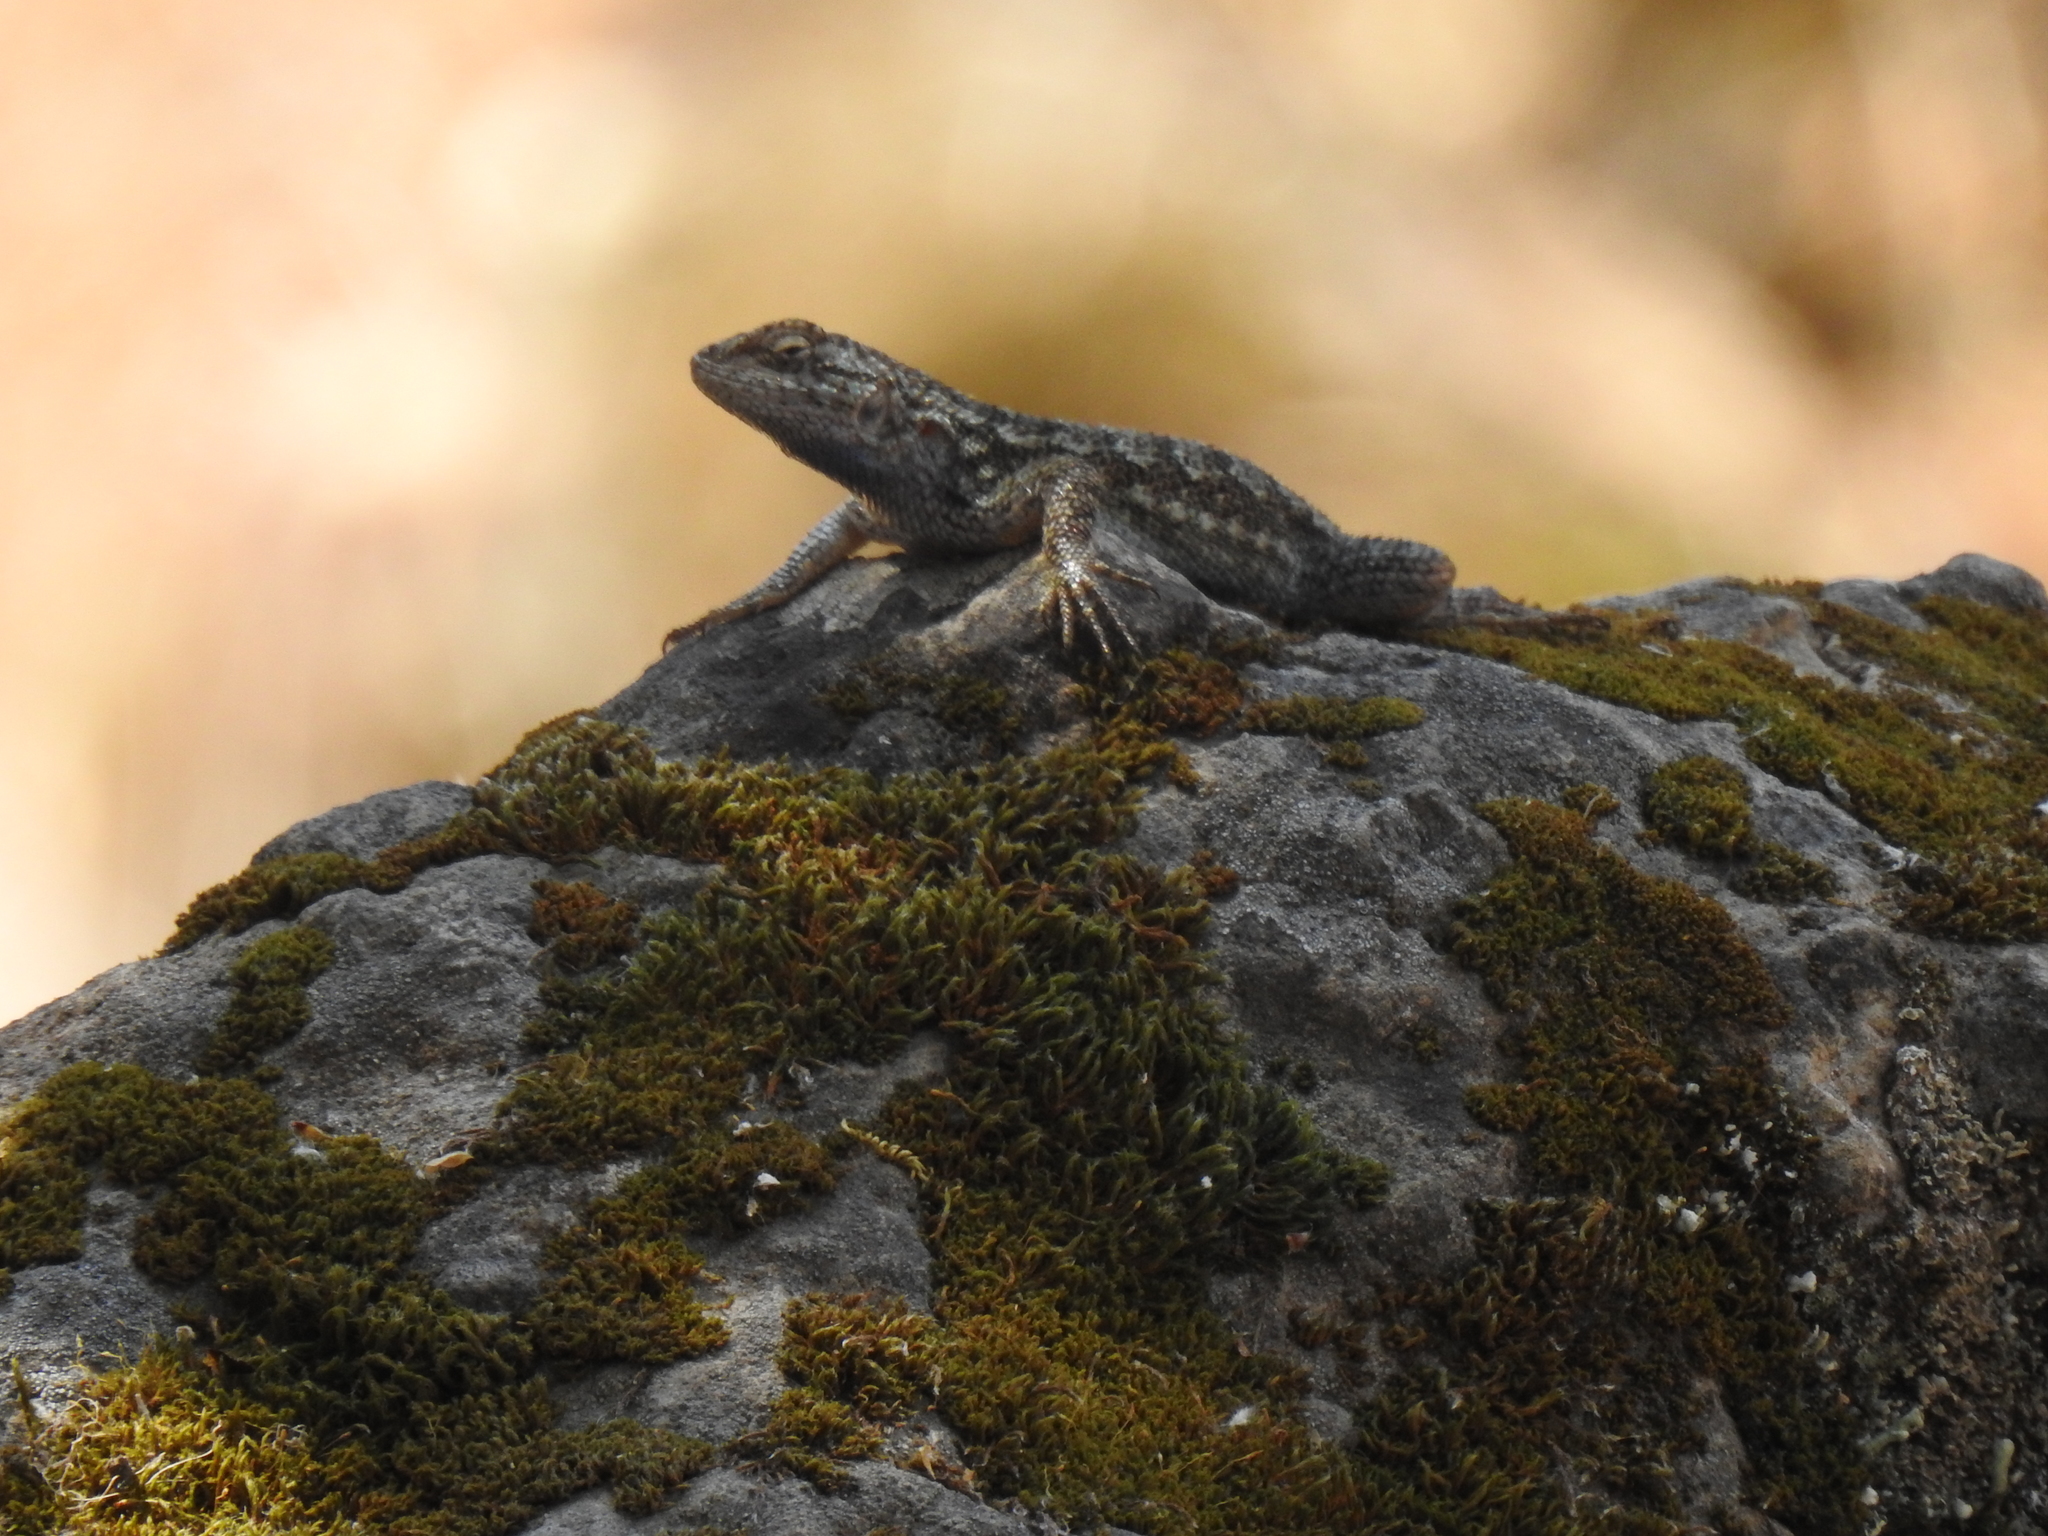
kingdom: Animalia
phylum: Chordata
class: Squamata
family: Phrynosomatidae
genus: Sceloporus
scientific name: Sceloporus occidentalis
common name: Western fence lizard
